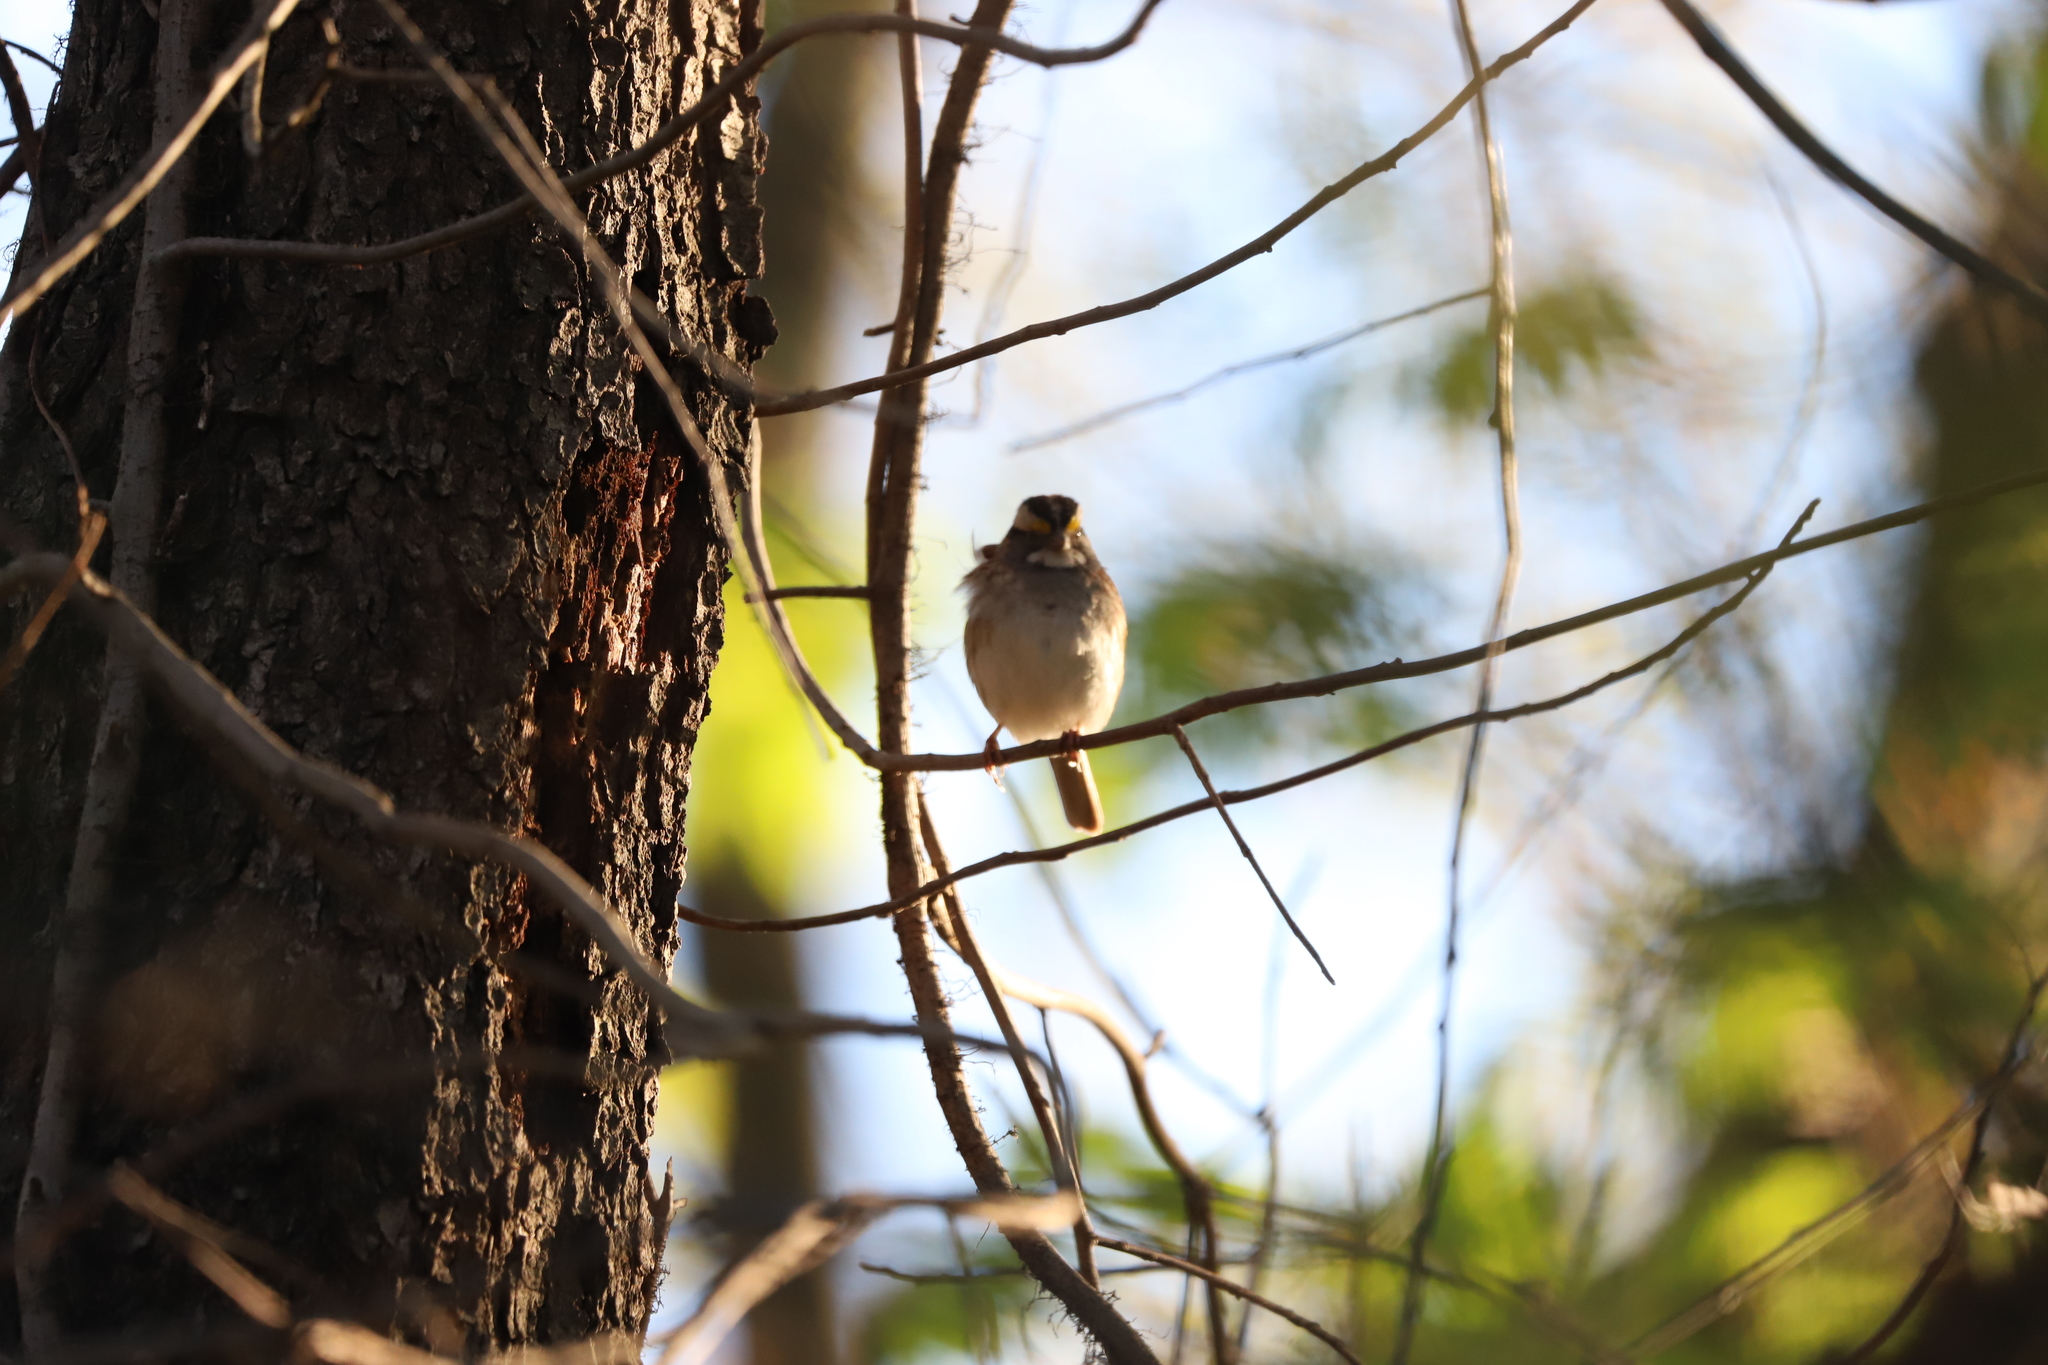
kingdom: Animalia
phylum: Chordata
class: Aves
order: Passeriformes
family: Passerellidae
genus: Zonotrichia
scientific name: Zonotrichia albicollis
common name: White-throated sparrow
